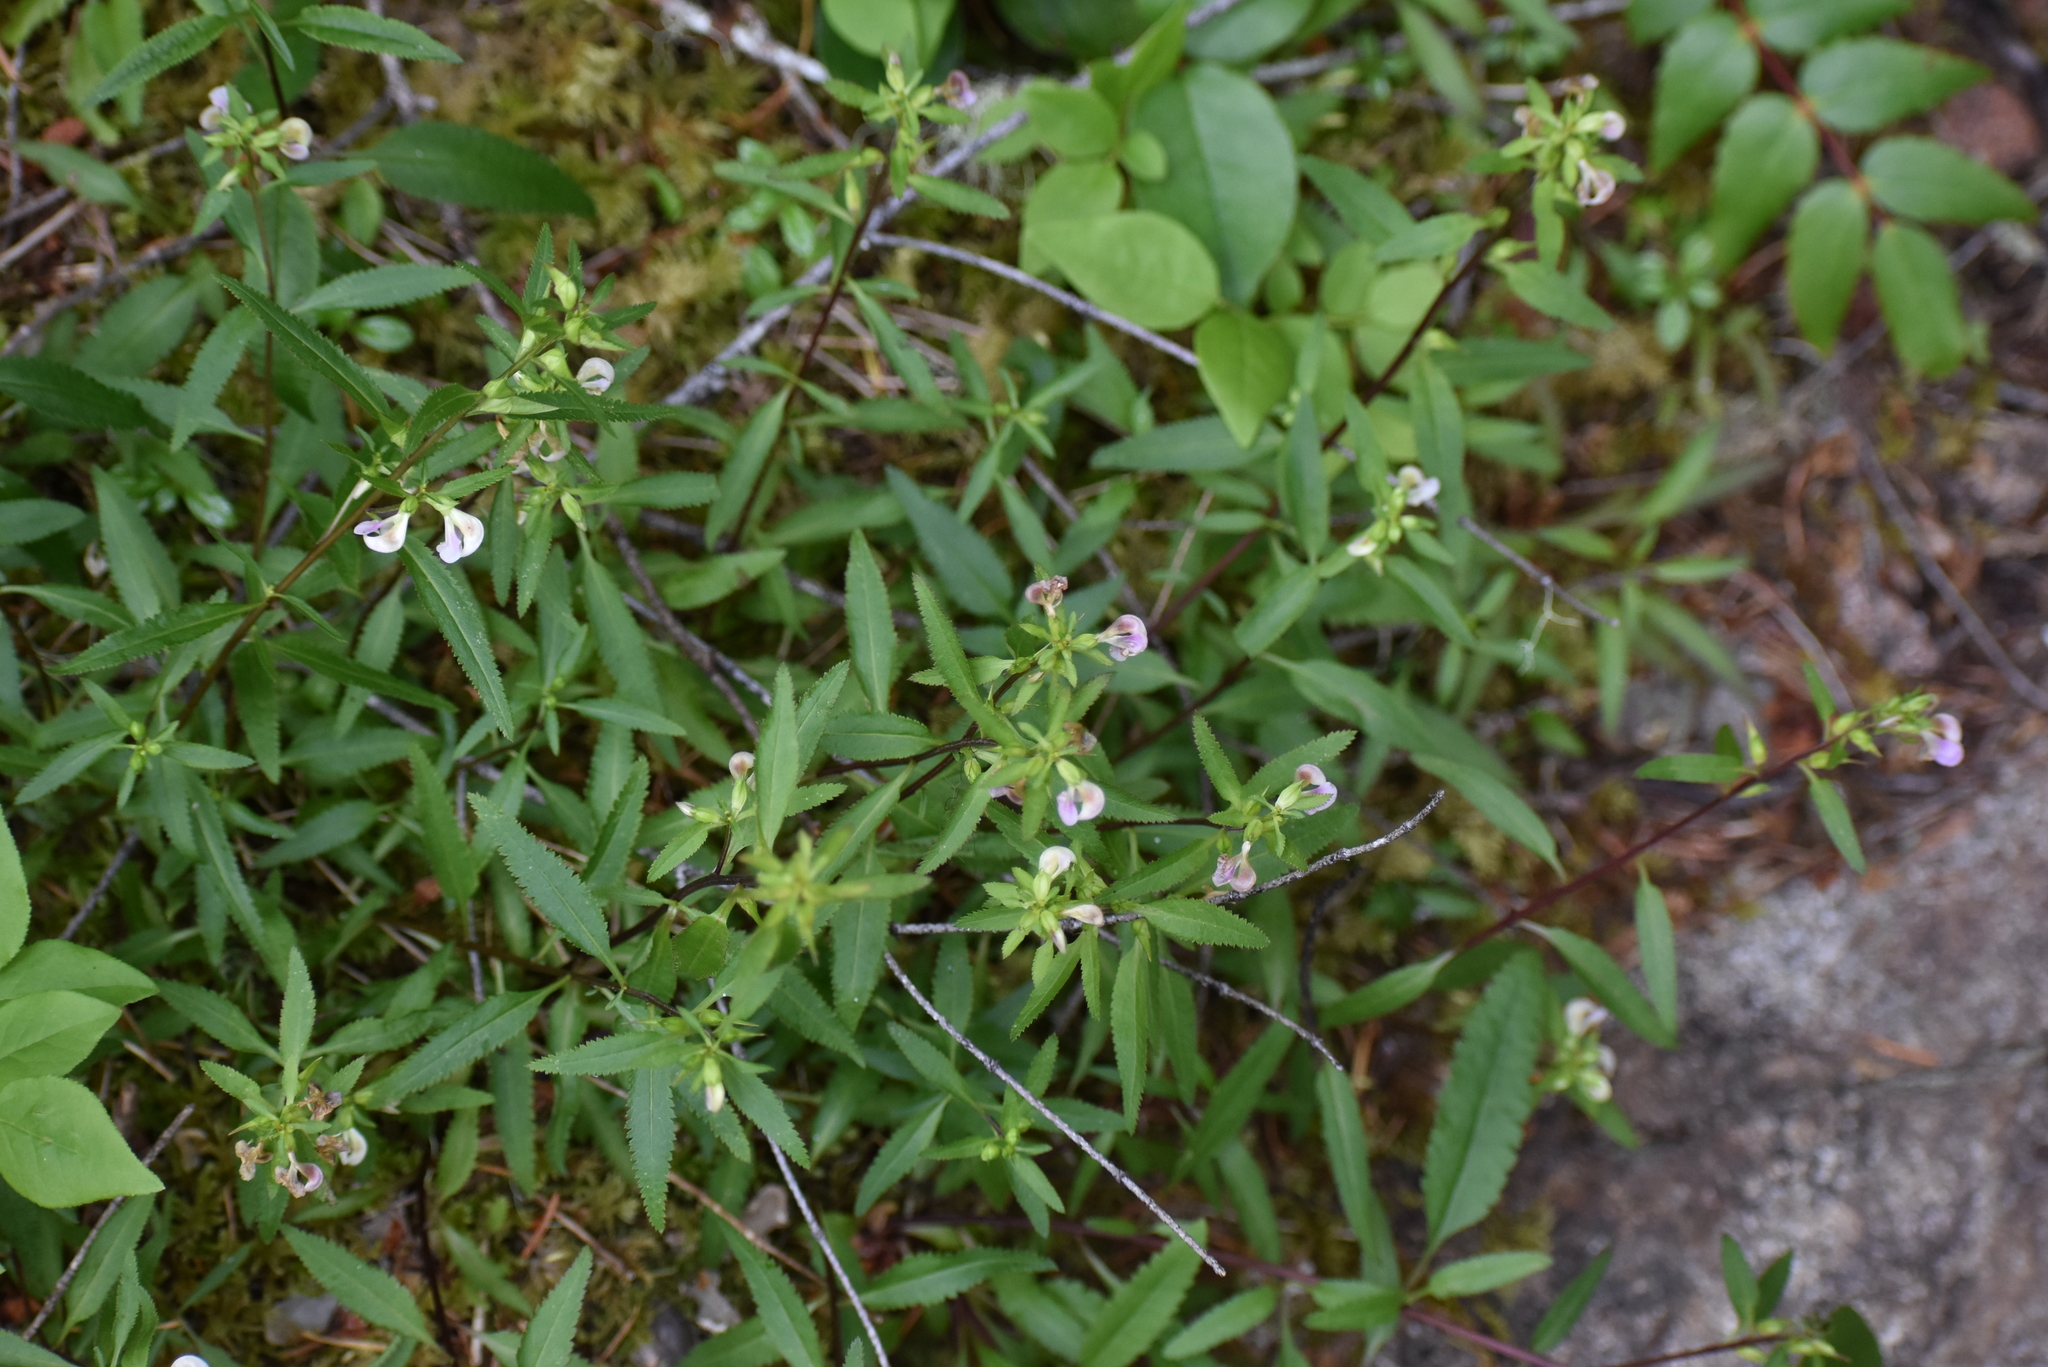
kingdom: Plantae
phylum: Tracheophyta
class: Magnoliopsida
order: Lamiales
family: Orobanchaceae
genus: Pedicularis
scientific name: Pedicularis racemosa
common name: Leafy lousewort
